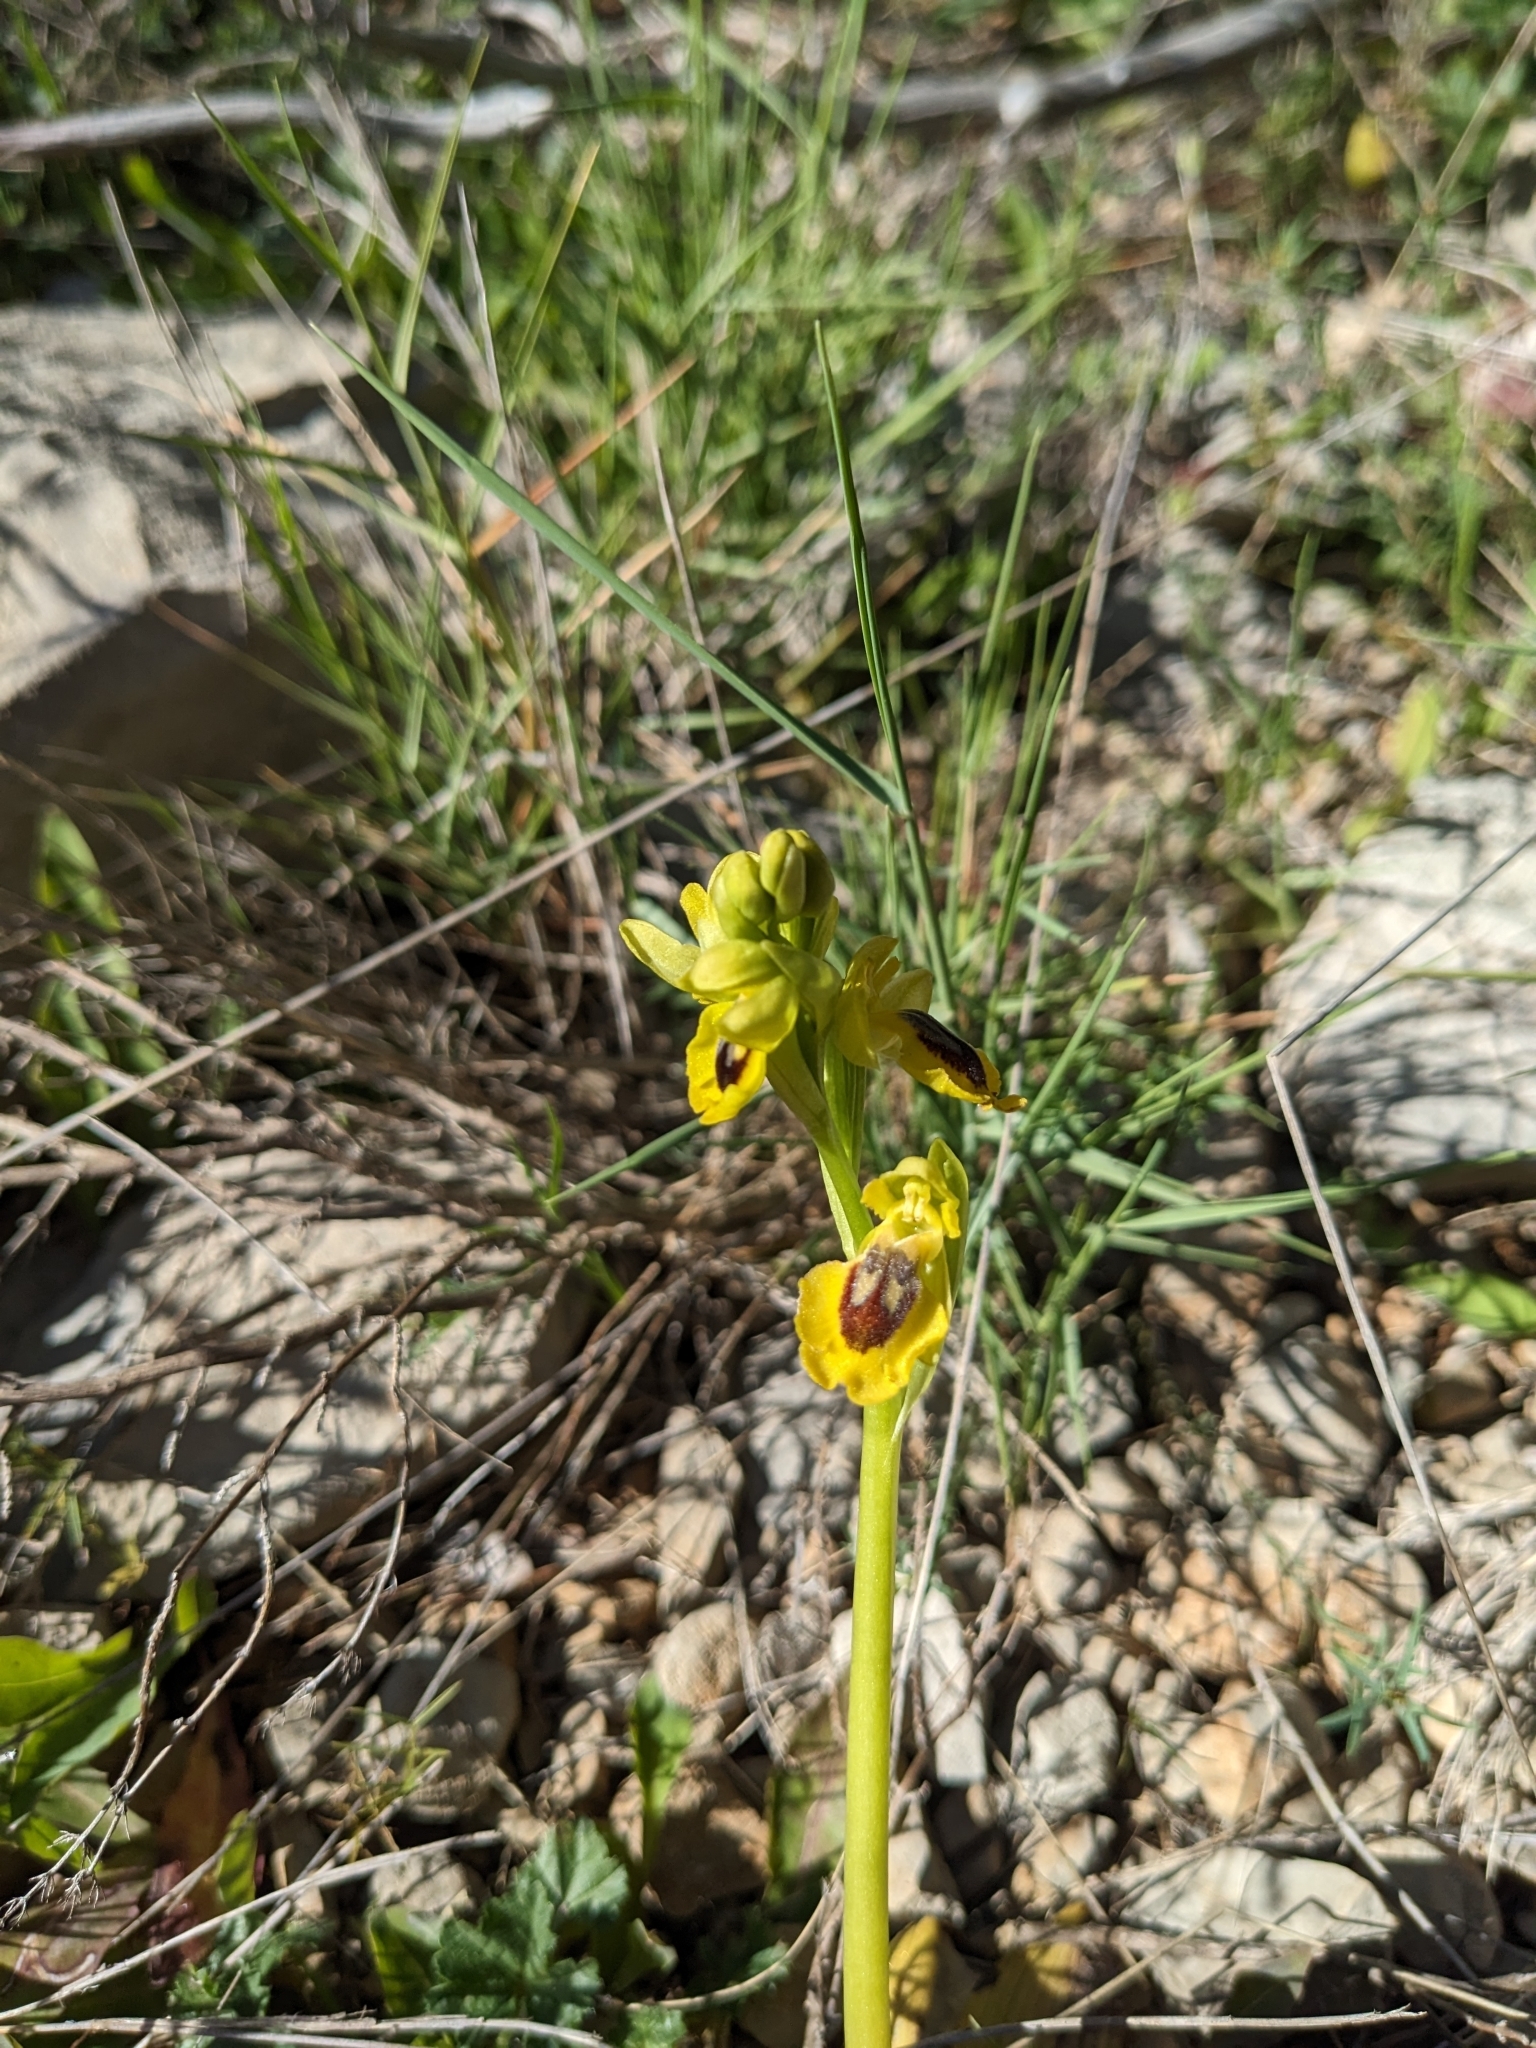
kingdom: Plantae
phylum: Tracheophyta
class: Liliopsida
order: Asparagales
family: Orchidaceae
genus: Ophrys
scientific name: Ophrys lutea
